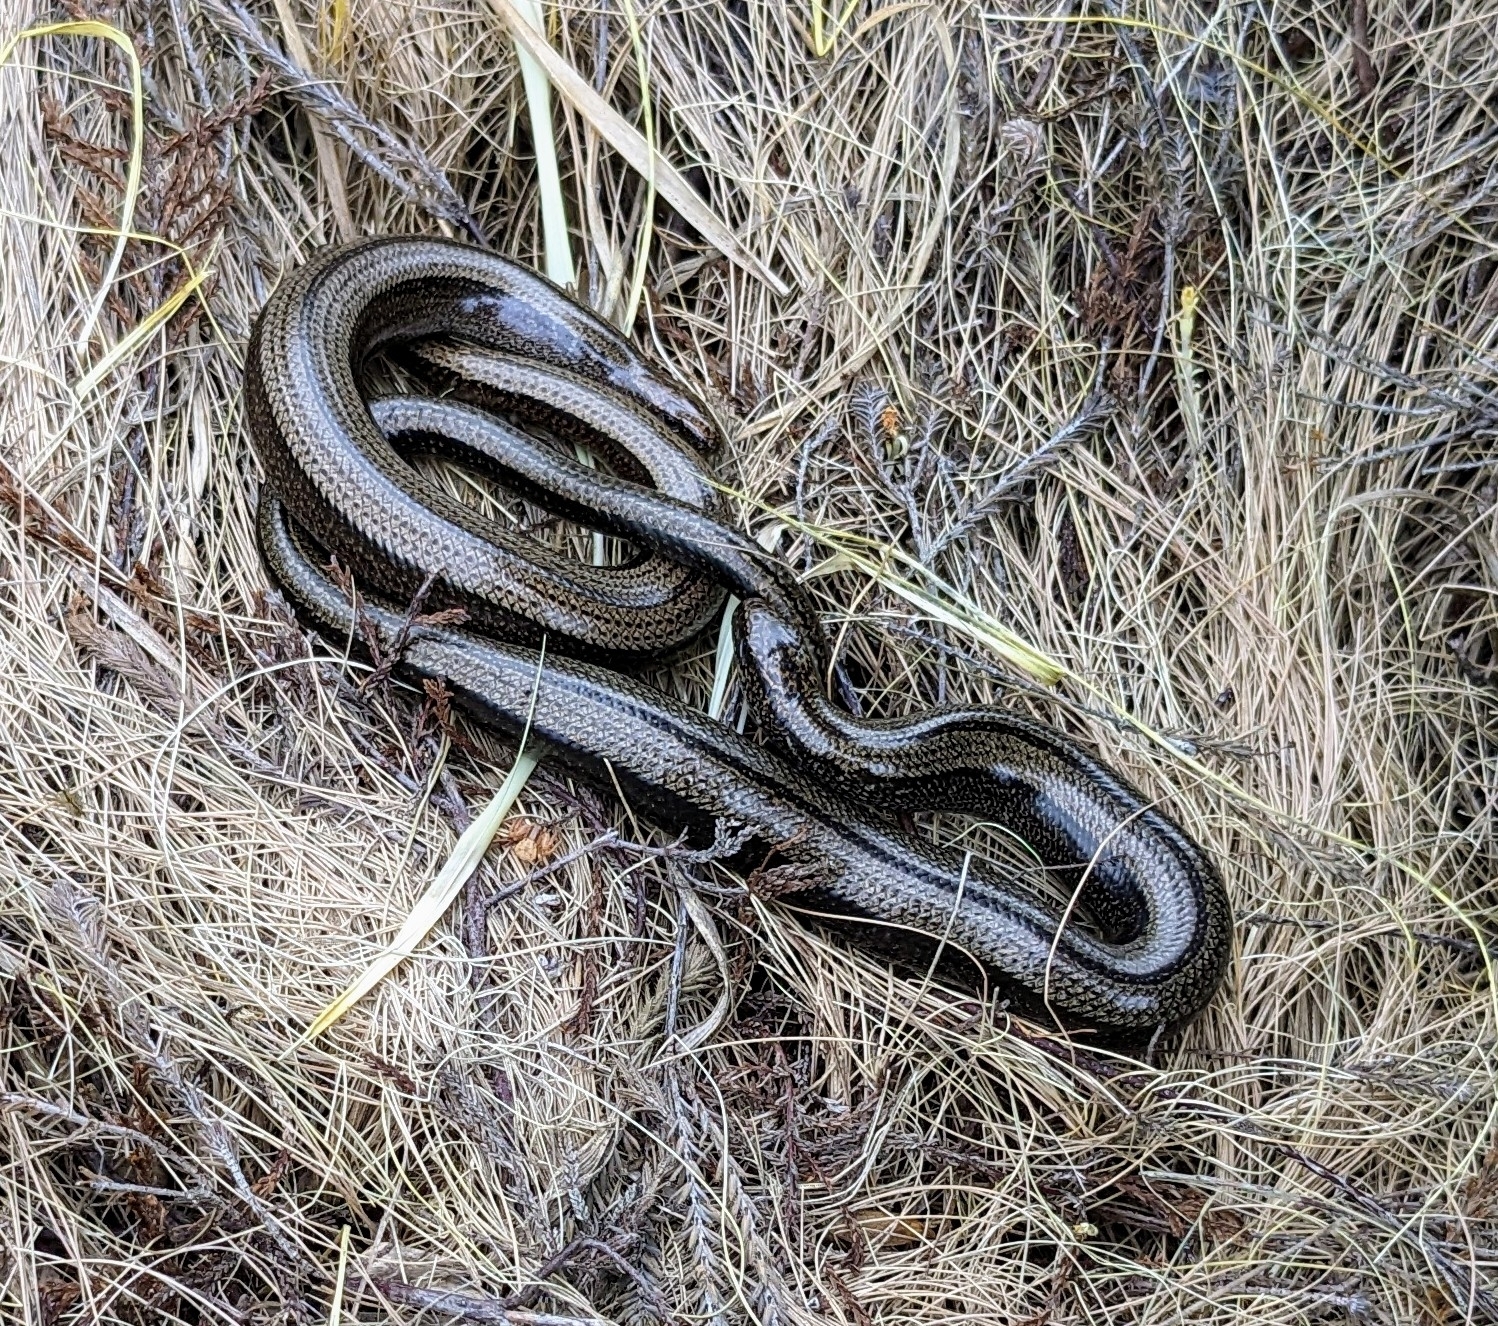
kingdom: Animalia
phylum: Chordata
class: Squamata
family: Anguidae
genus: Anguis
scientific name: Anguis fragilis
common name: Slow worm
